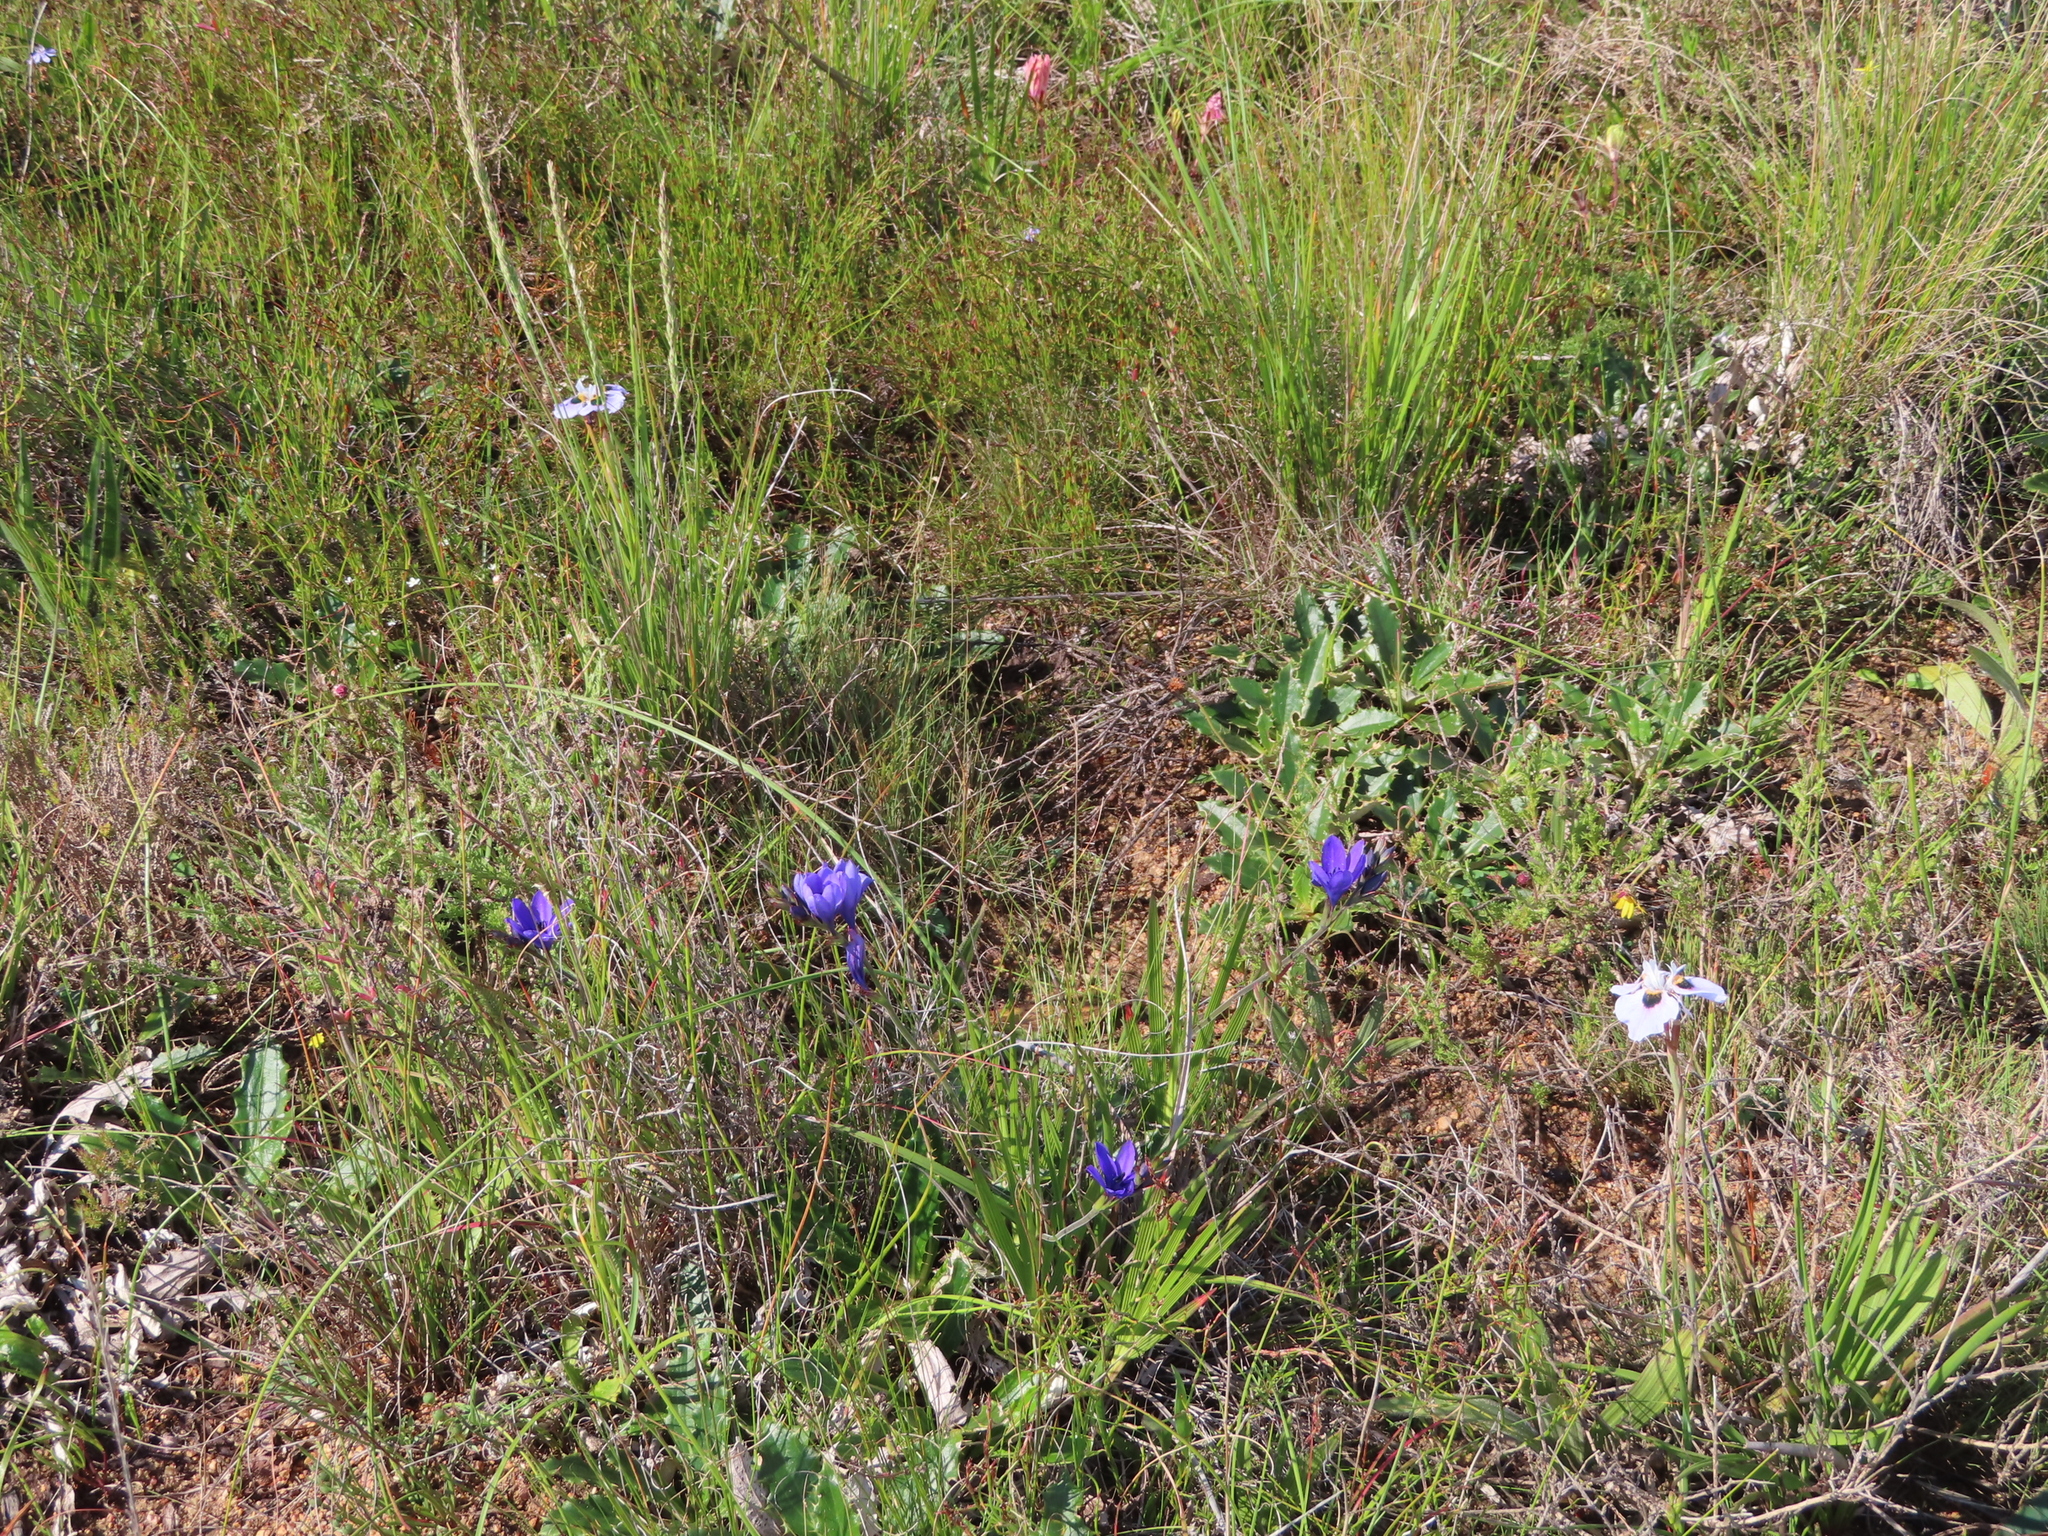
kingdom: Plantae
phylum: Tracheophyta
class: Liliopsida
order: Asparagales
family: Iridaceae
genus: Moraea
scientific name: Moraea villosa
